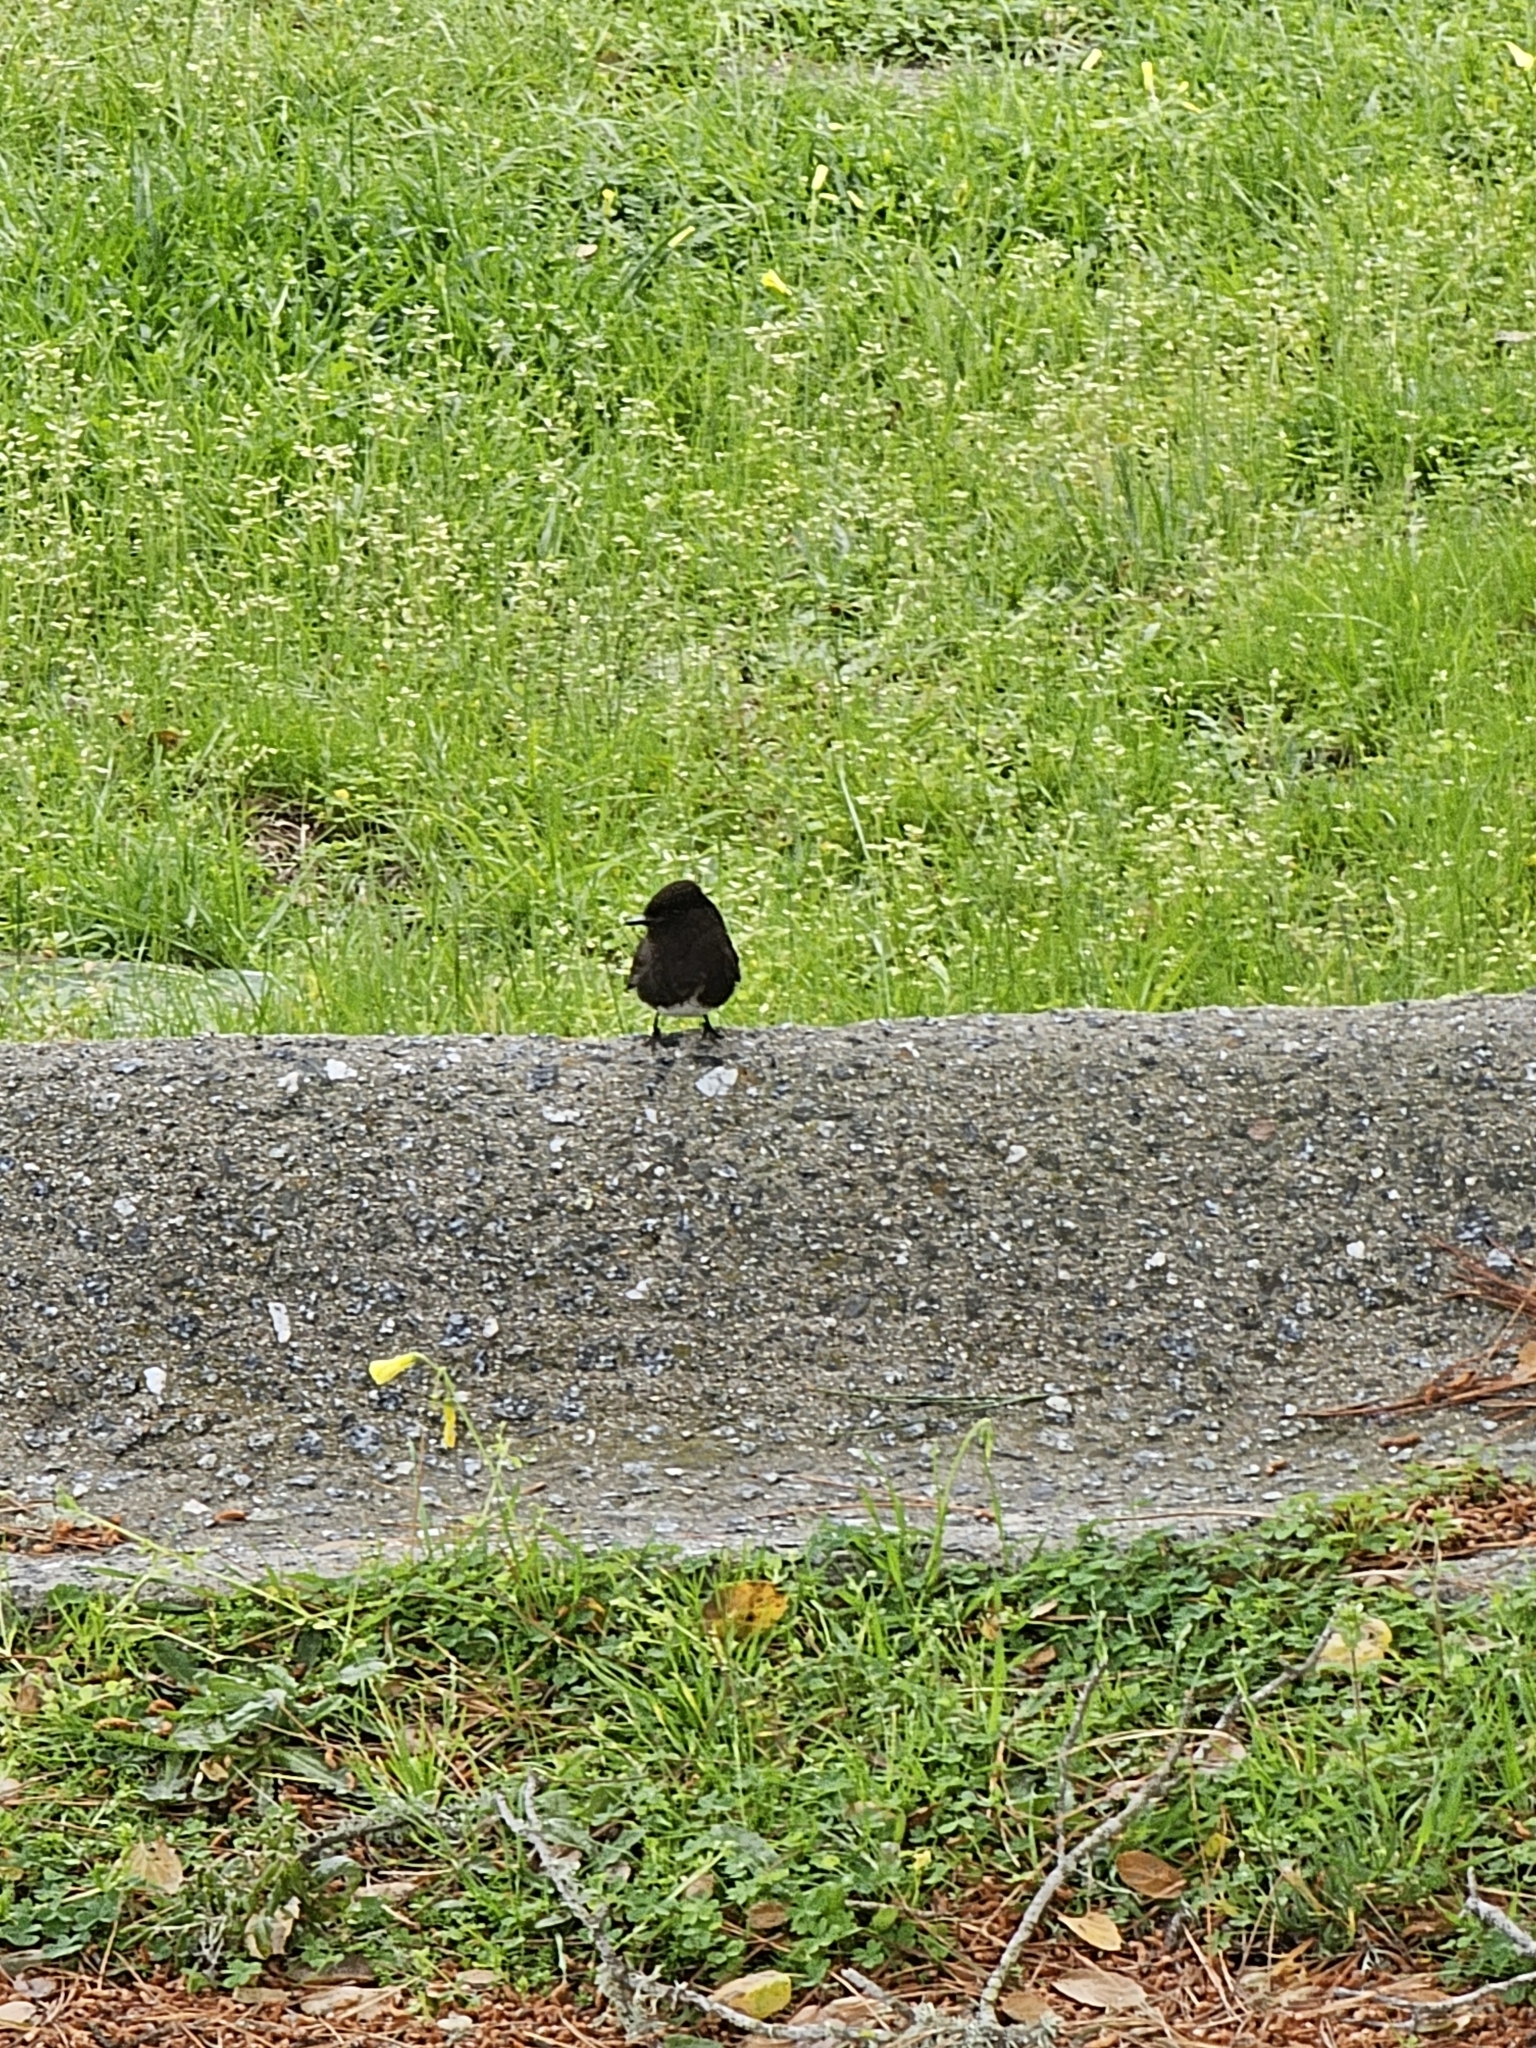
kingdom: Animalia
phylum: Chordata
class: Aves
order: Passeriformes
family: Tyrannidae
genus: Sayornis
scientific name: Sayornis nigricans
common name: Black phoebe
